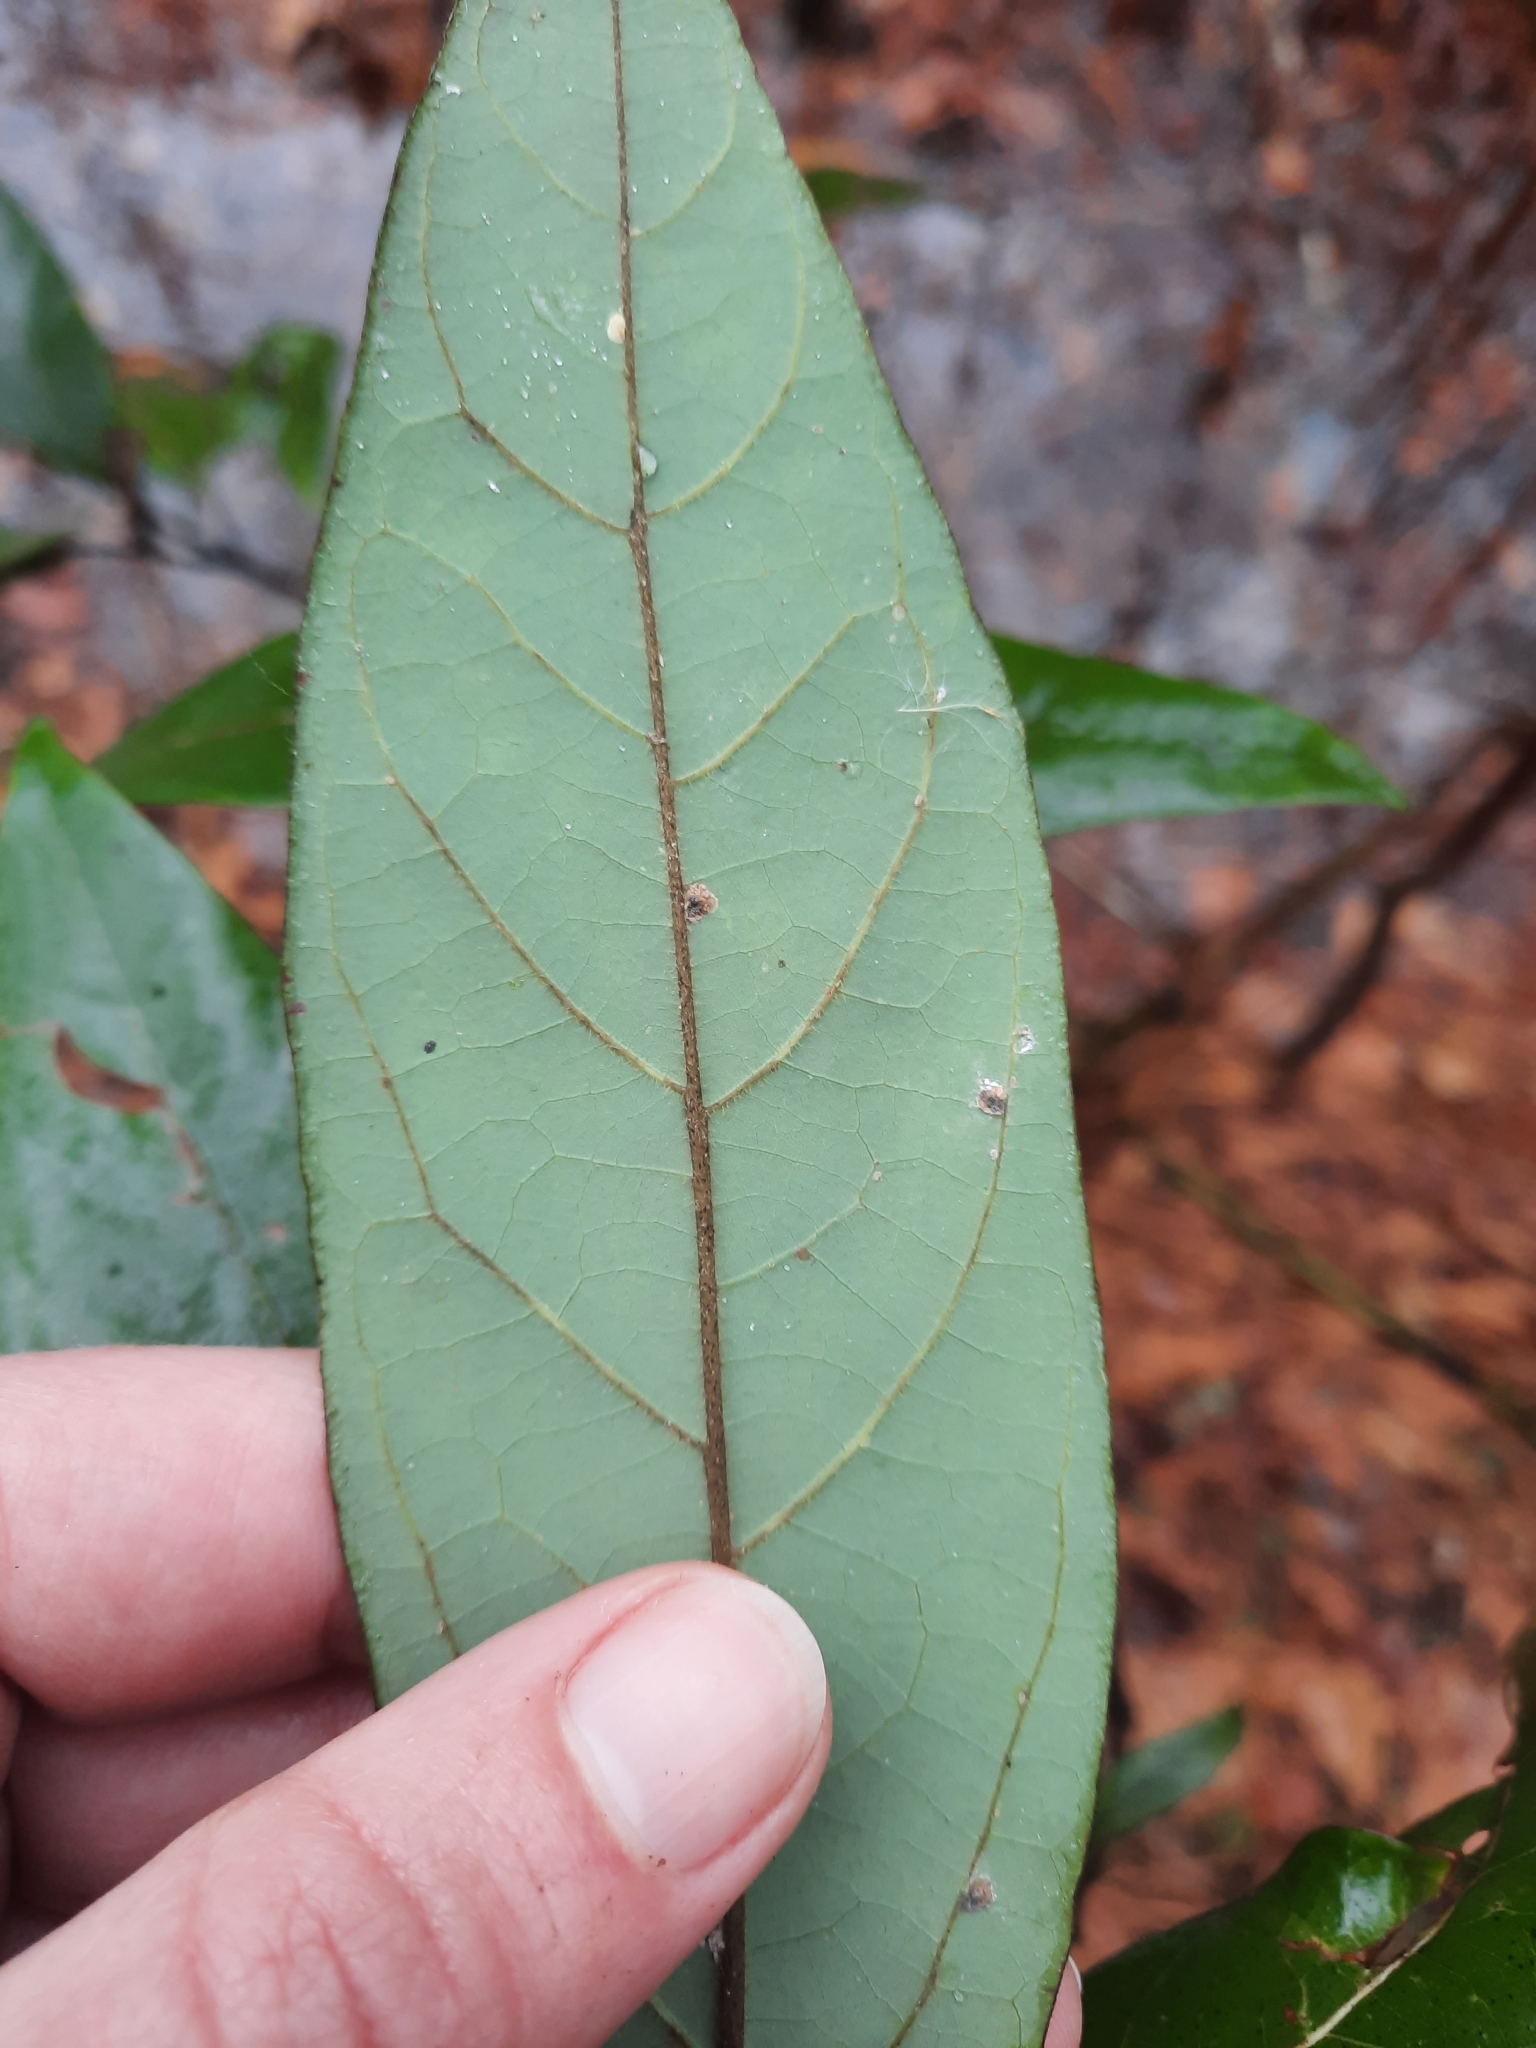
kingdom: Plantae
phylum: Tracheophyta
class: Magnoliopsida
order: Laurales
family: Lauraceae
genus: Persea
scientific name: Persea palustris
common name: Swampbay
